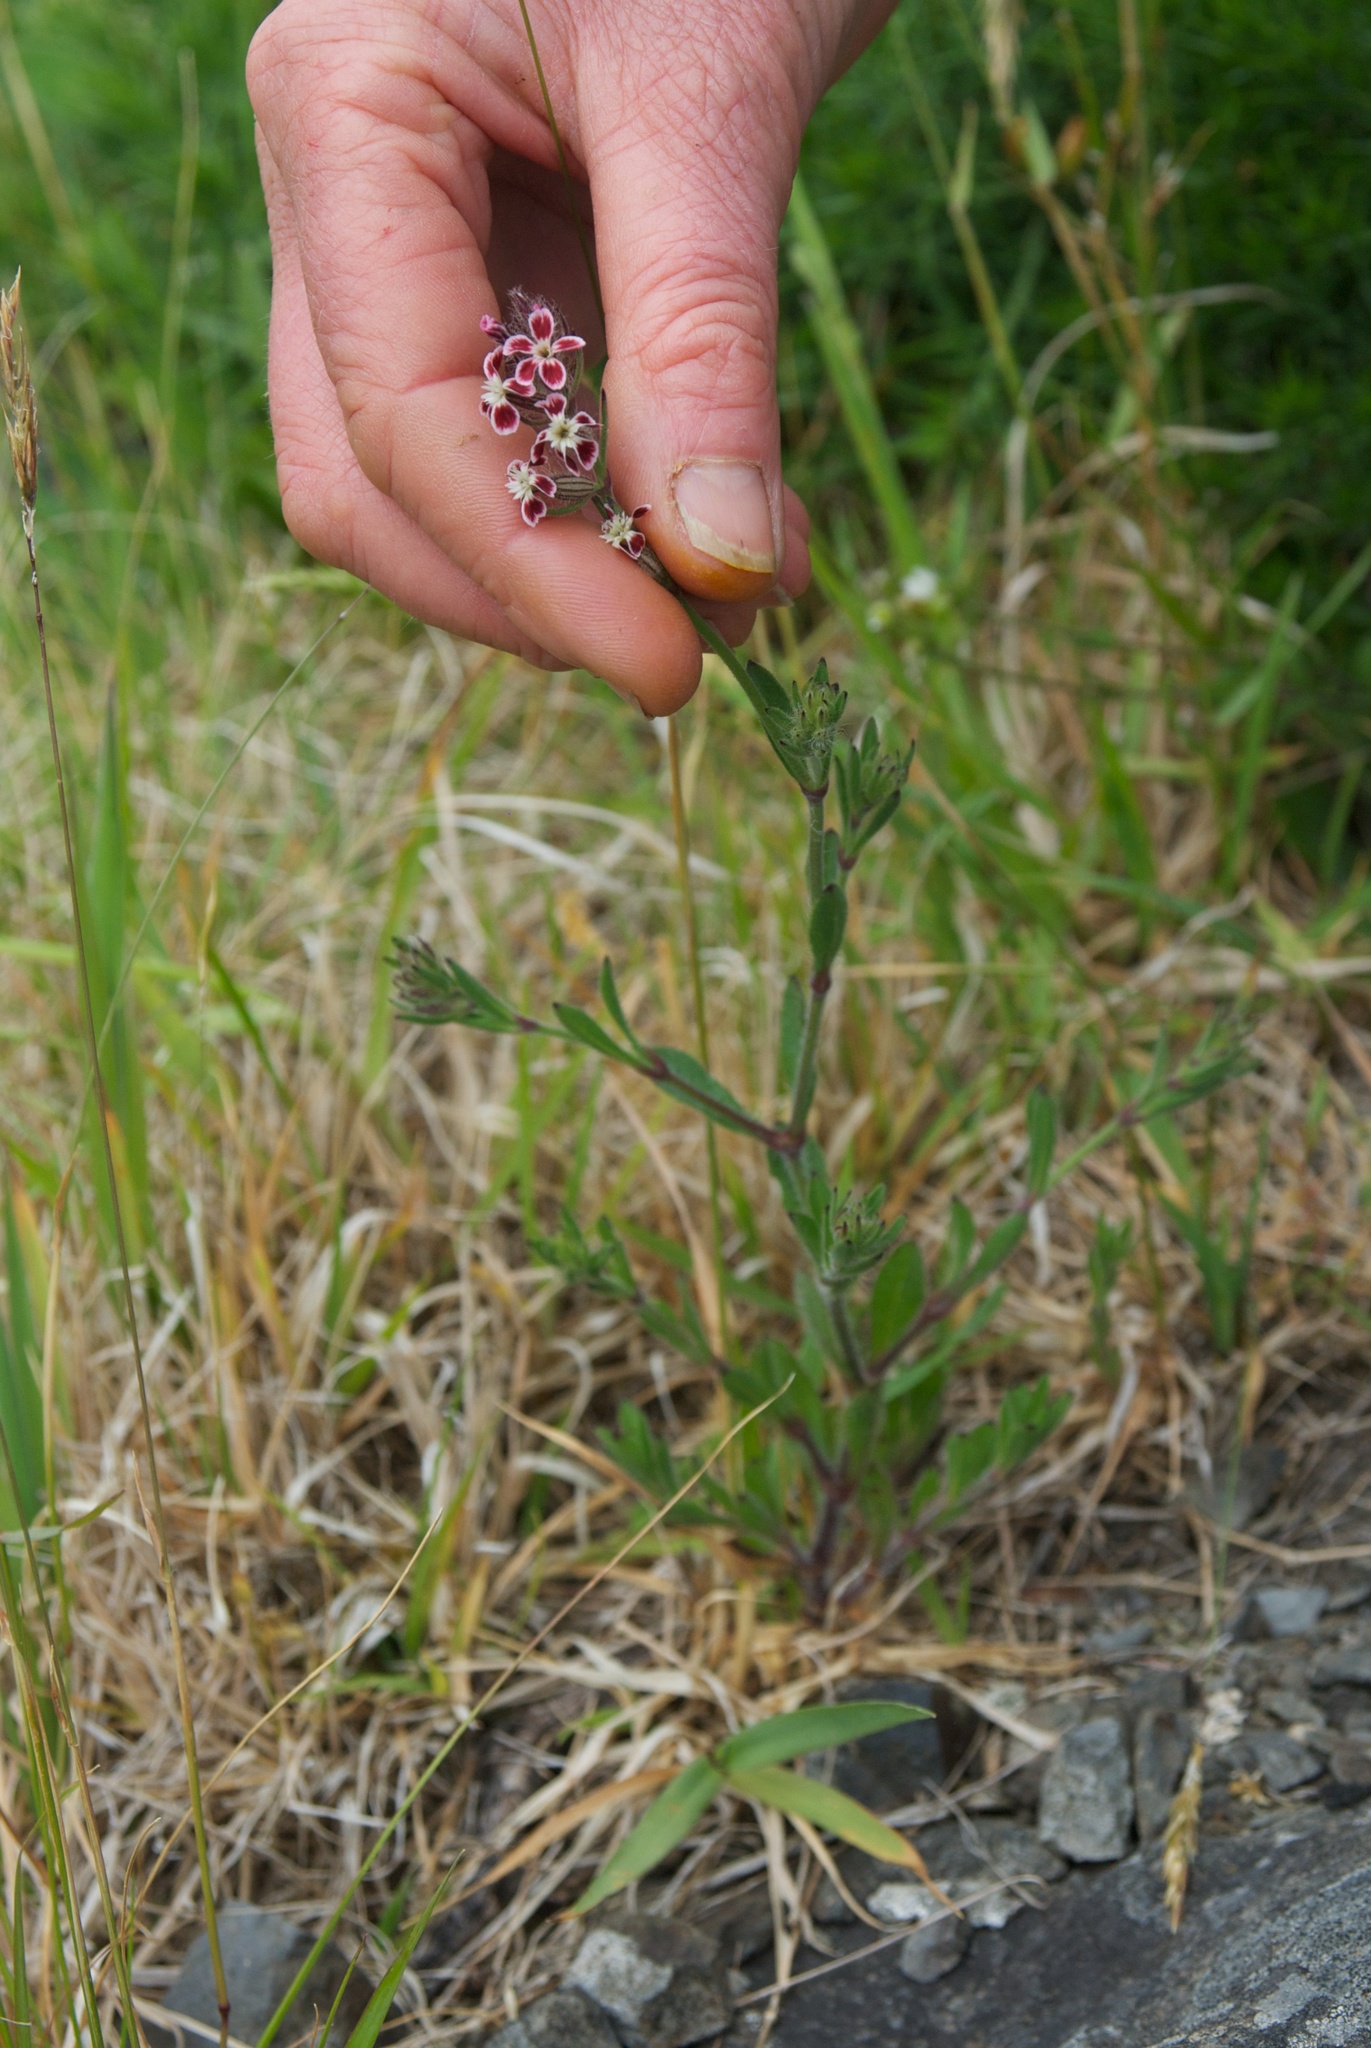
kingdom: Plantae
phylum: Tracheophyta
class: Magnoliopsida
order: Caryophyllales
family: Caryophyllaceae
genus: Silene
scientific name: Silene gallica
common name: Small-flowered catchfly
